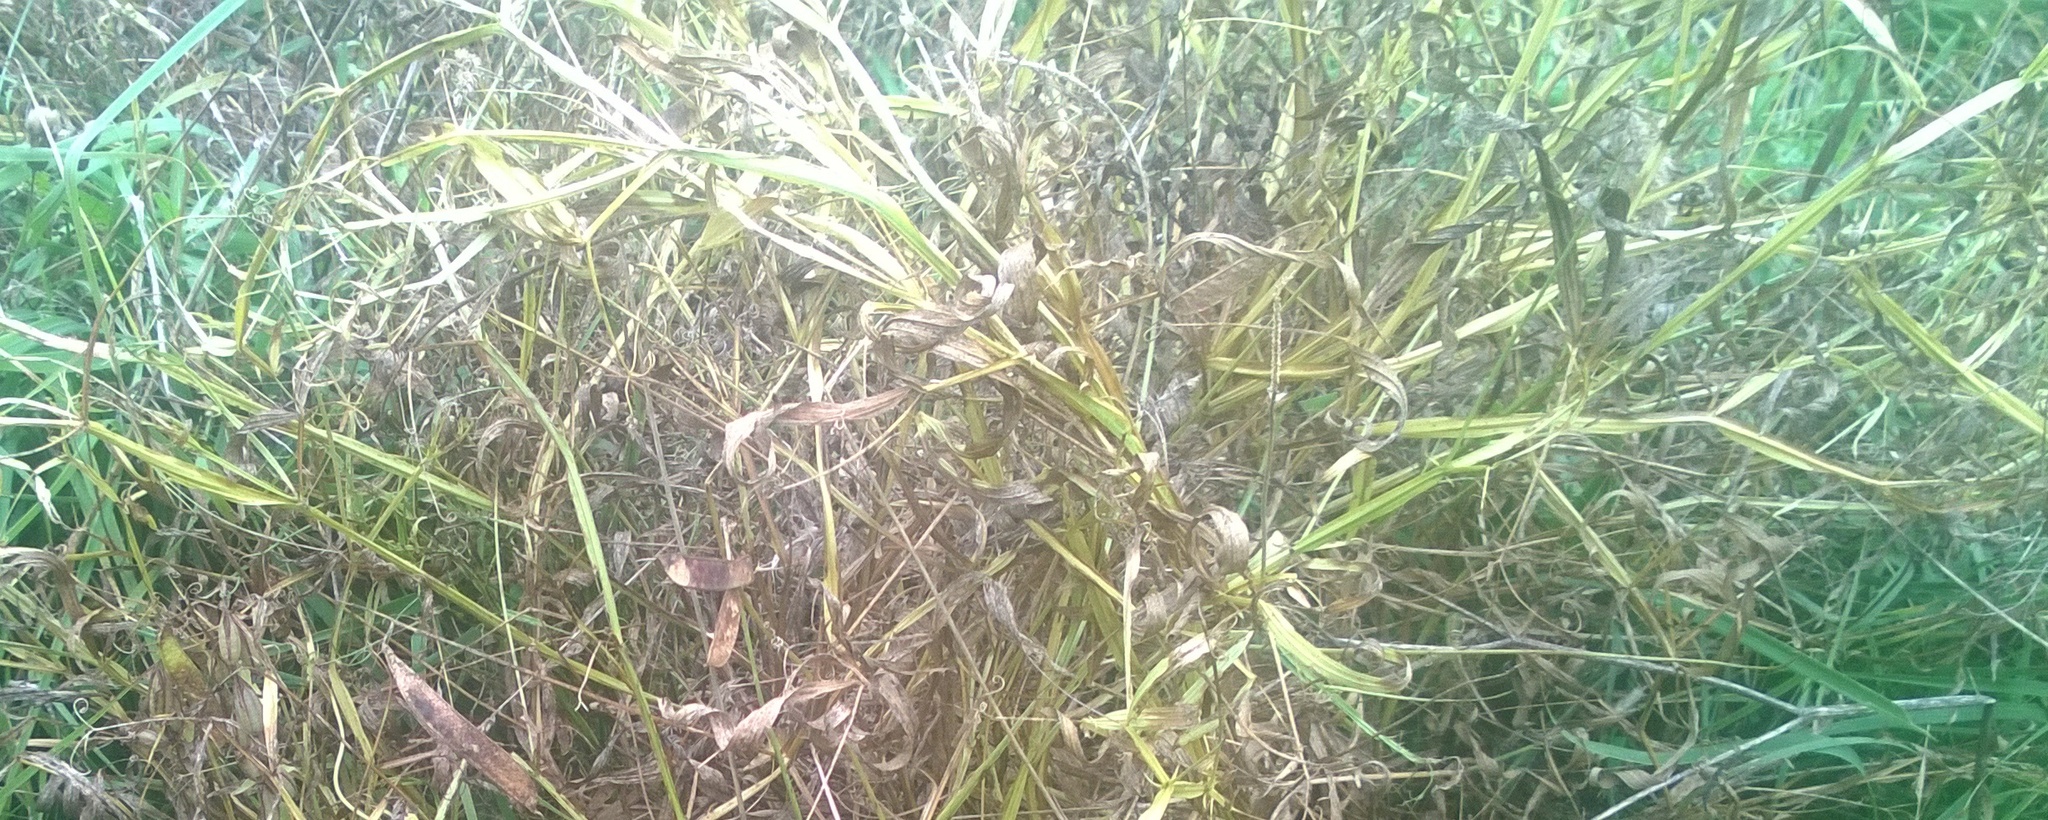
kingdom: Plantae
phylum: Tracheophyta
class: Magnoliopsida
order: Fabales
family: Fabaceae
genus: Lathyrus
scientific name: Lathyrus sylvestris
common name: Flat pea
